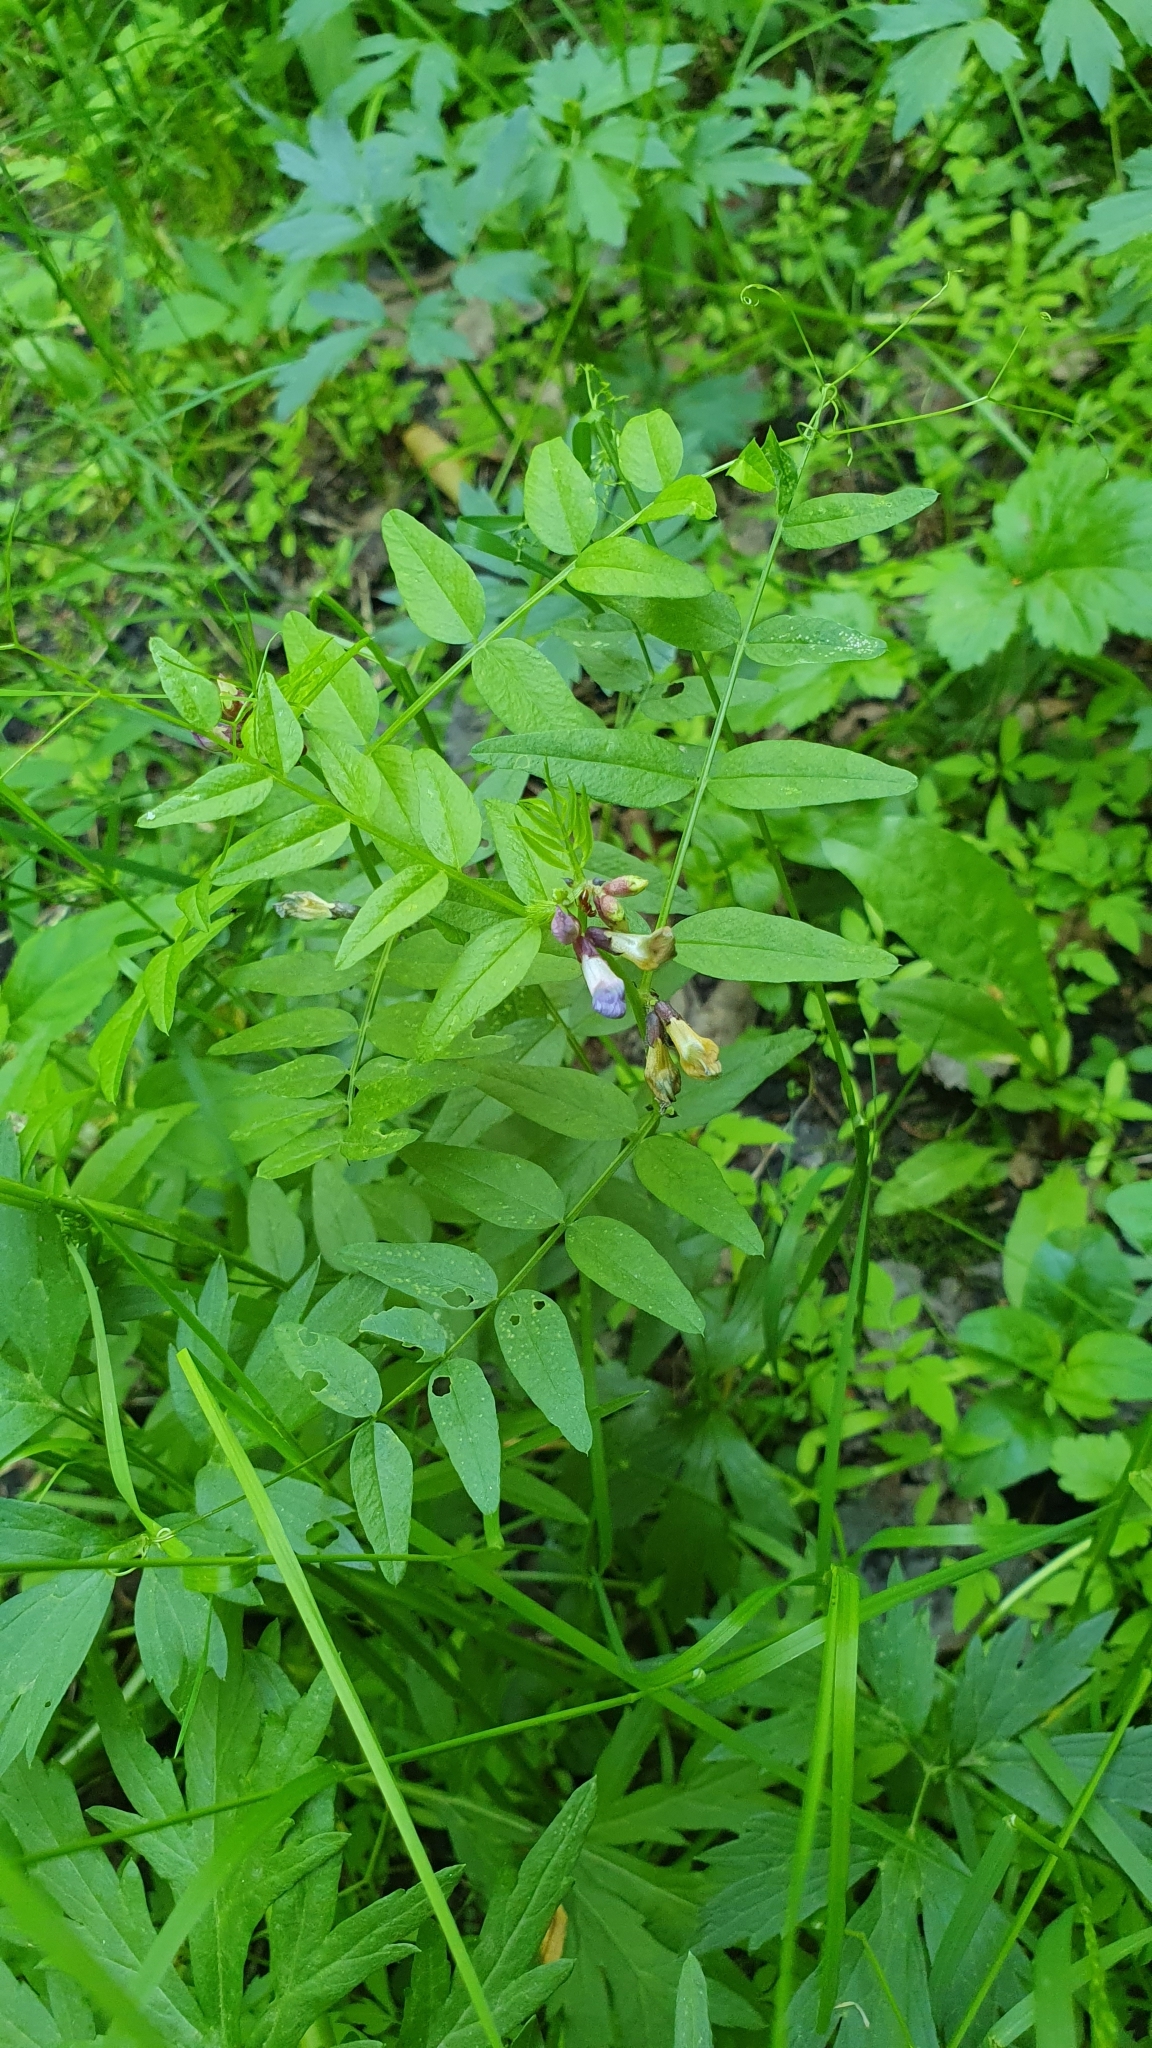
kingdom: Plantae
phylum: Tracheophyta
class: Magnoliopsida
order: Fabales
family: Fabaceae
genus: Vicia
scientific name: Vicia sepium
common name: Bush vetch
